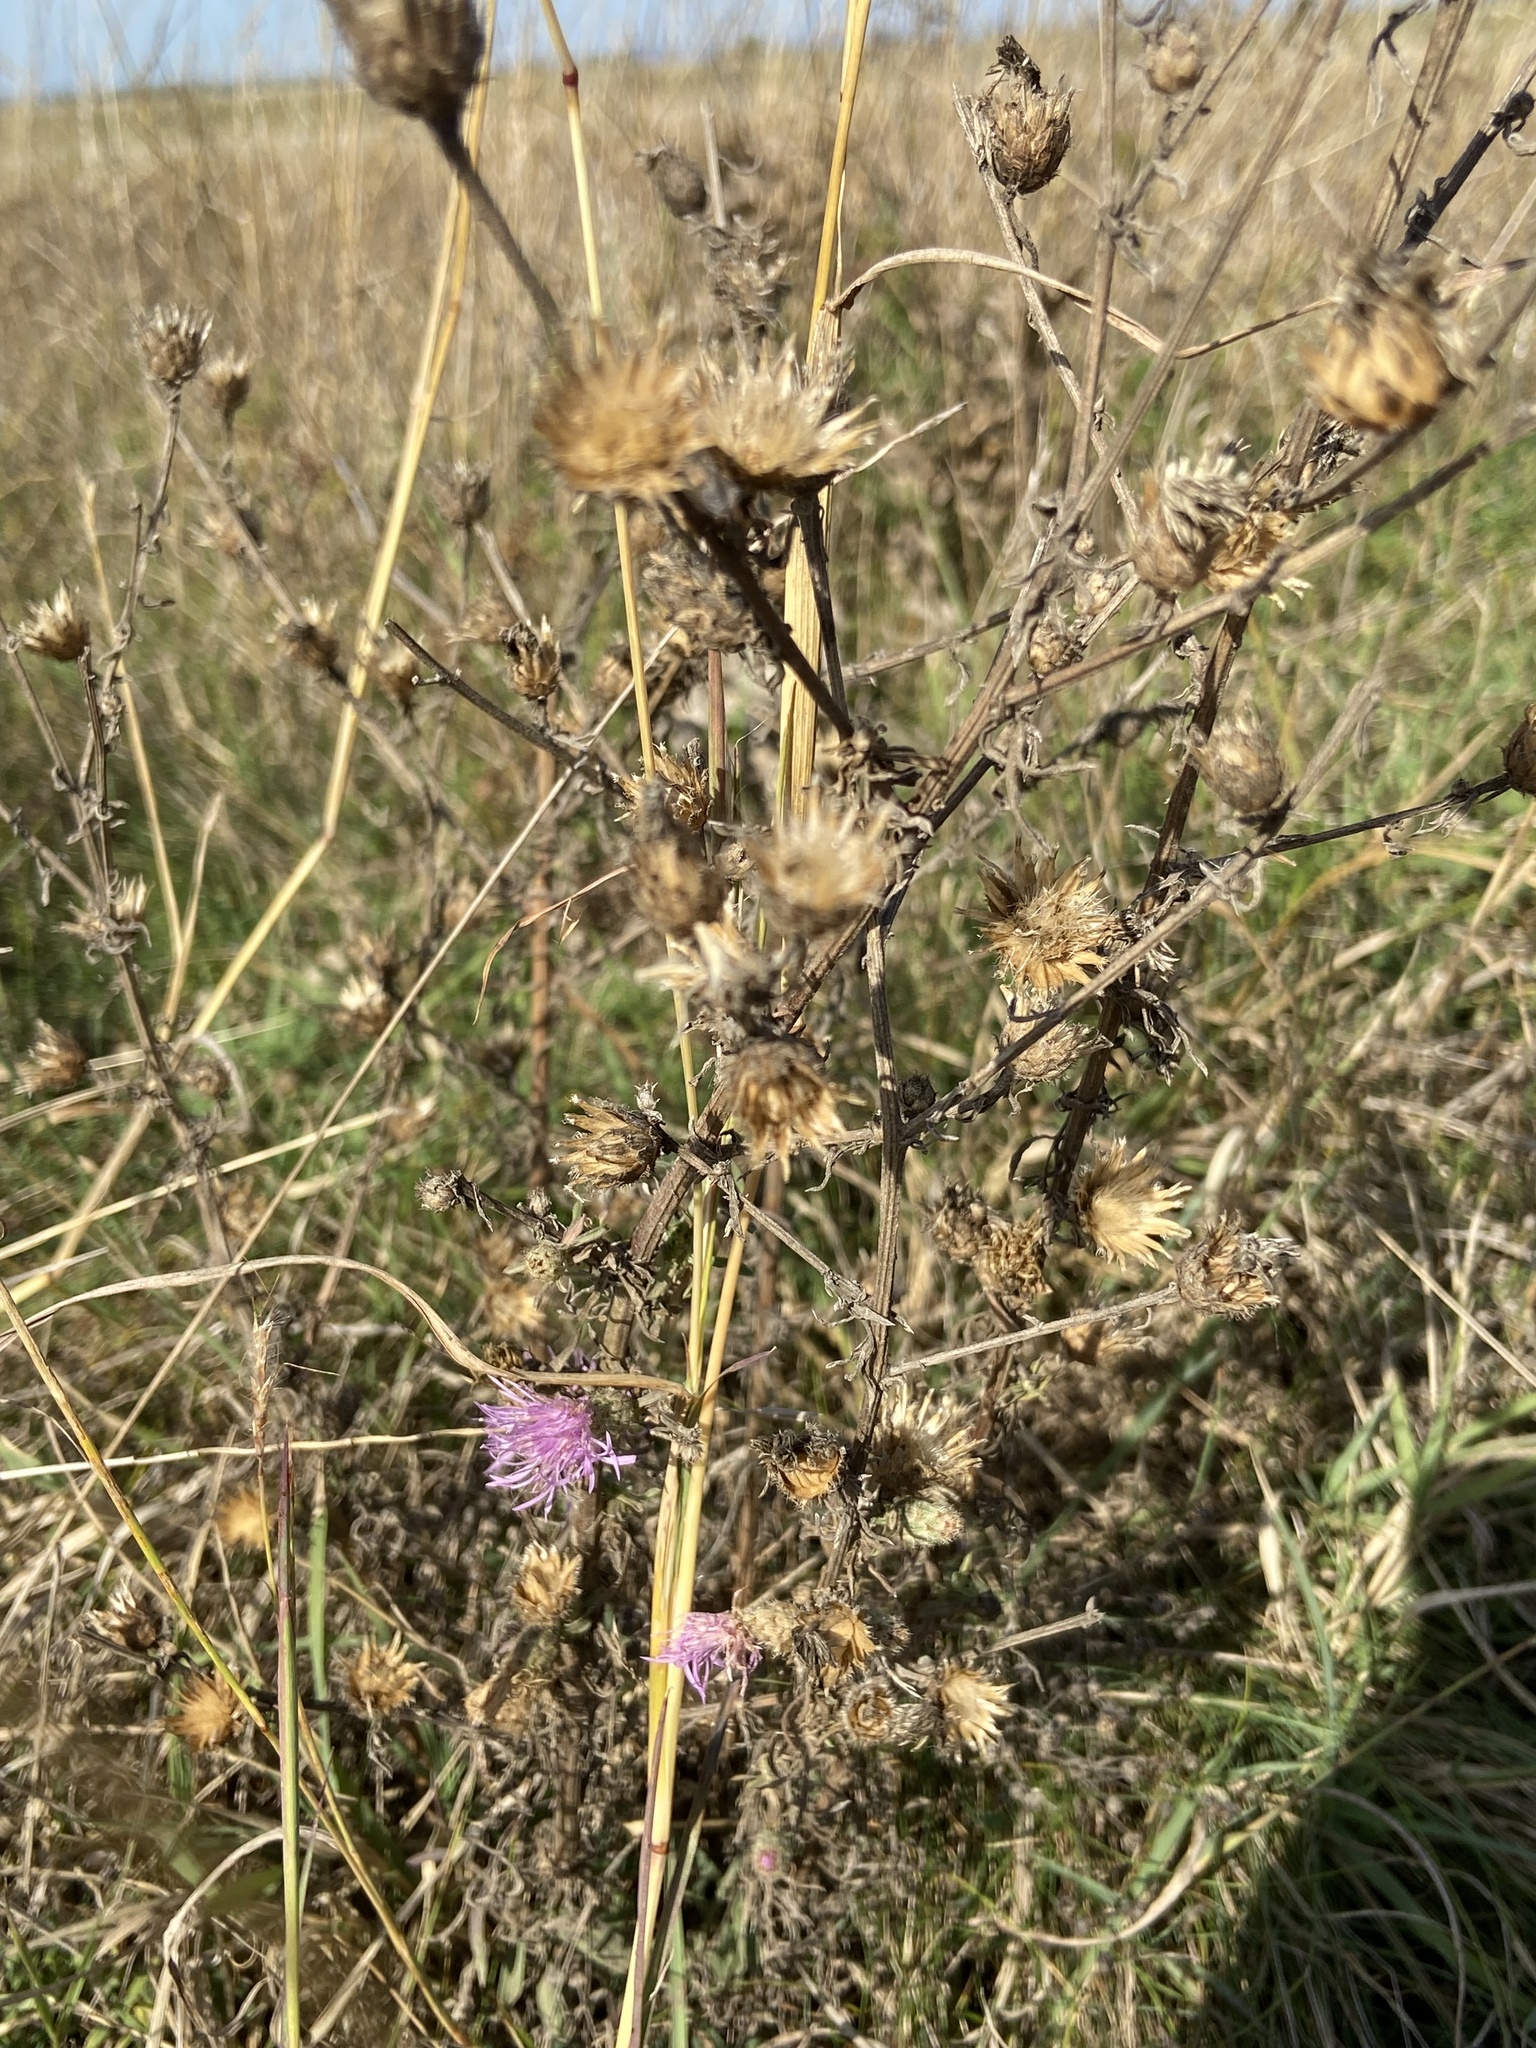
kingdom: Plantae
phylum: Tracheophyta
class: Magnoliopsida
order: Asterales
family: Asteraceae
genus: Centaurea
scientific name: Centaurea stoebe
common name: Spotted knapweed
